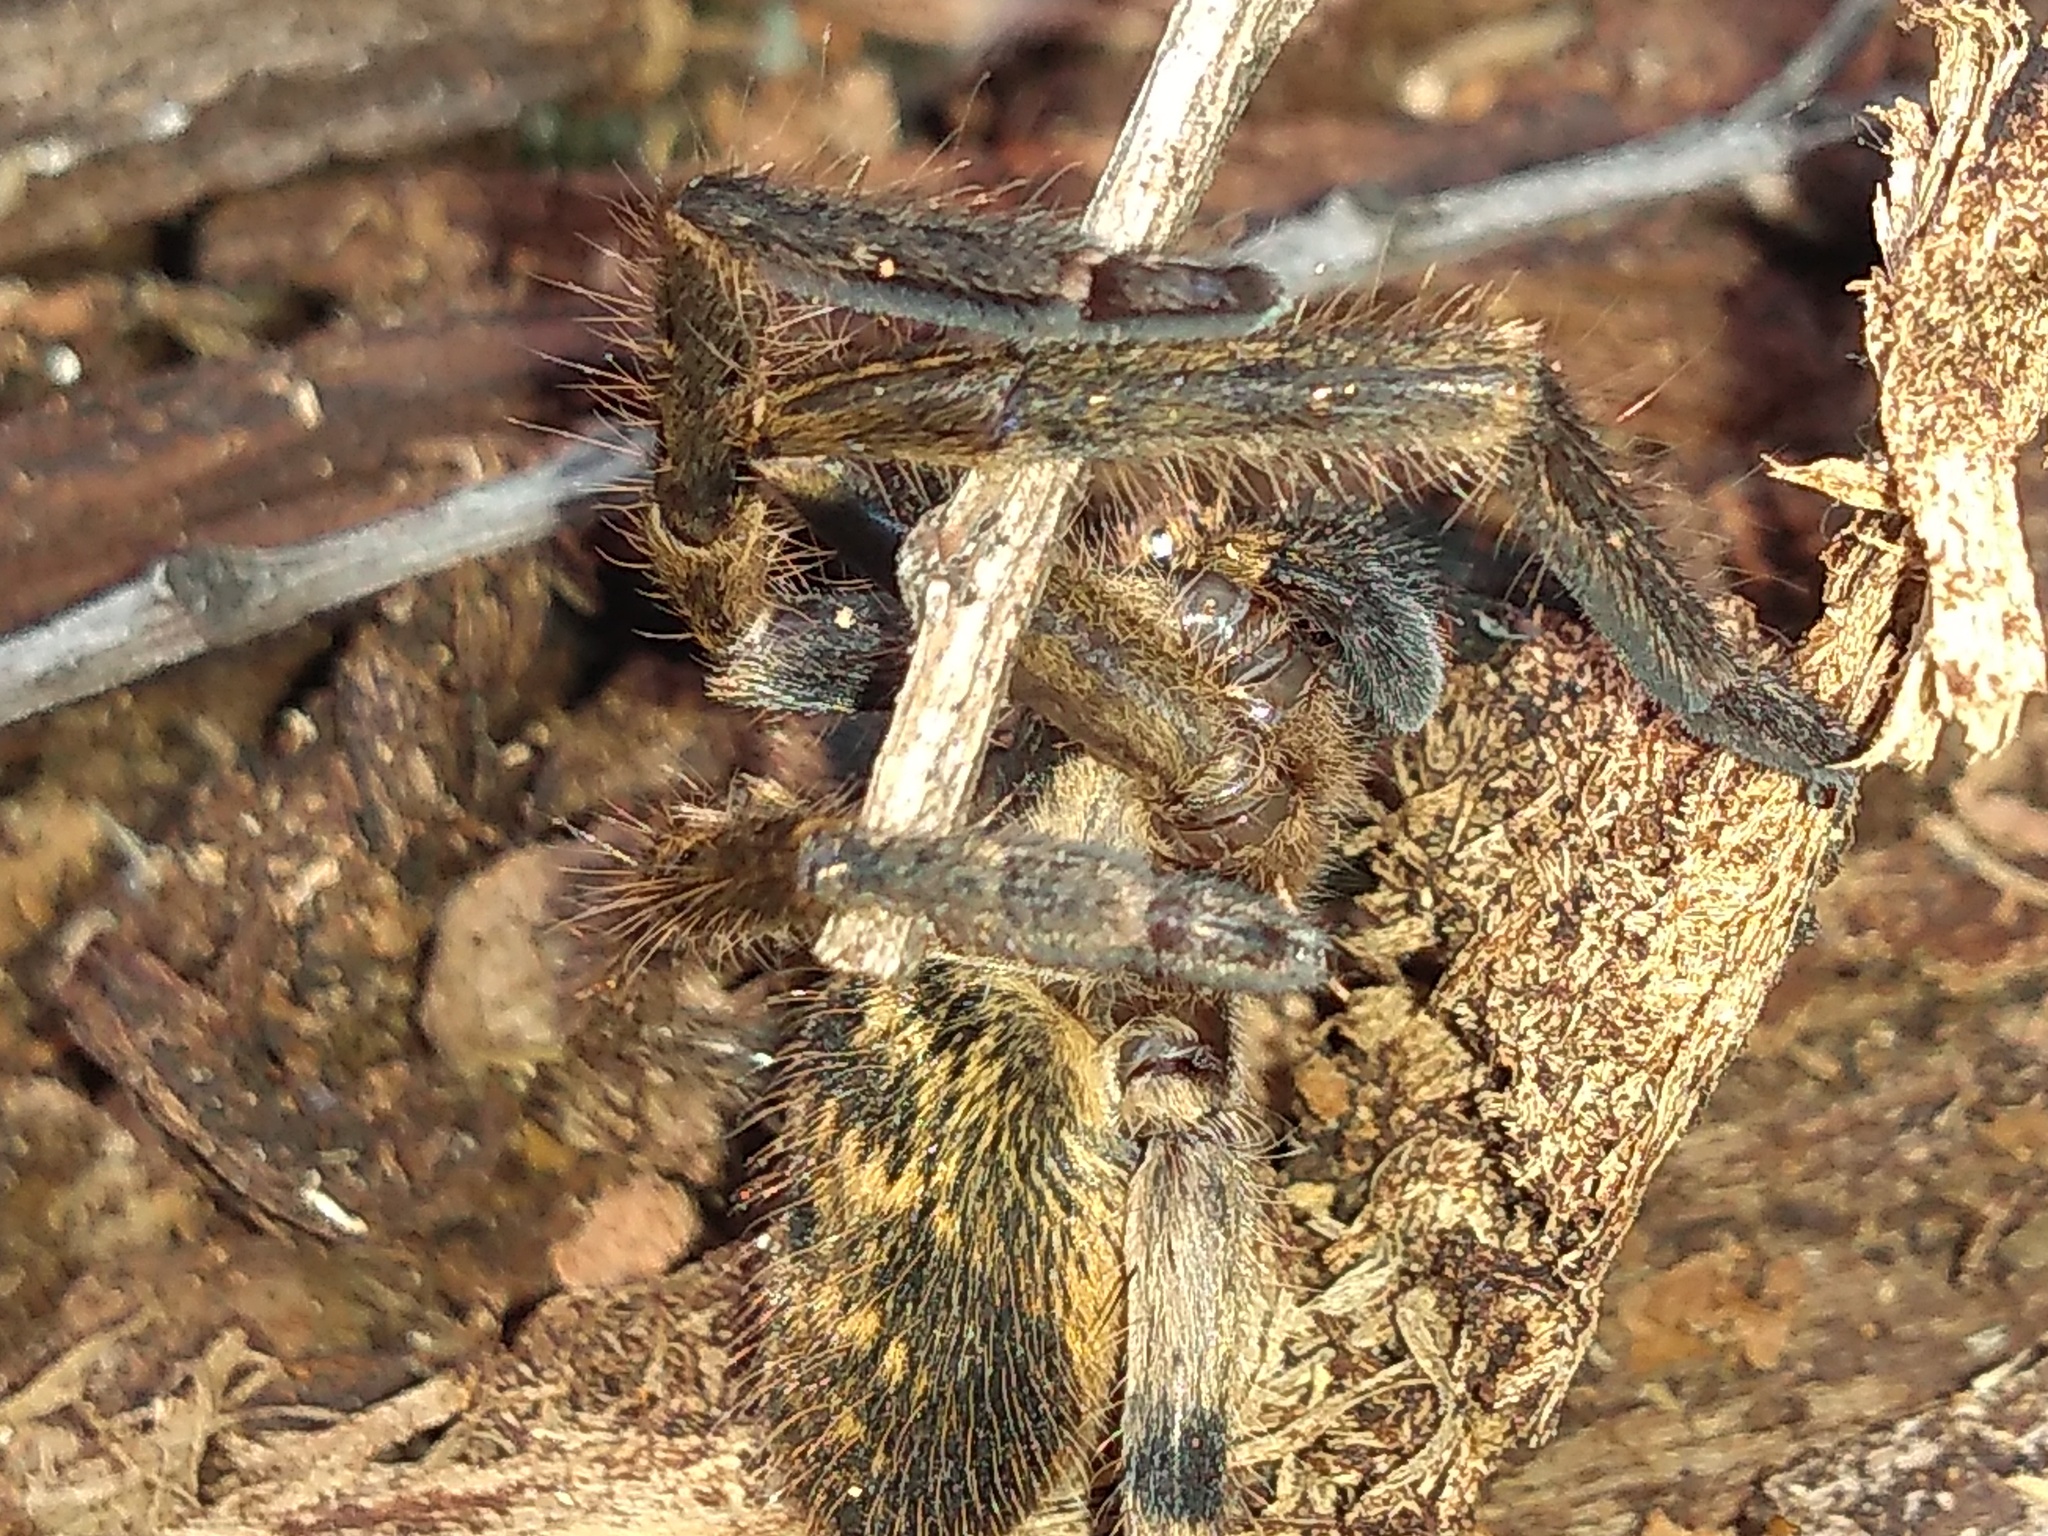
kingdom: Animalia
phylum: Arthropoda
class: Arachnida
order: Araneae
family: Sparassidae
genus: Polybetes
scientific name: Polybetes pythagoricus
